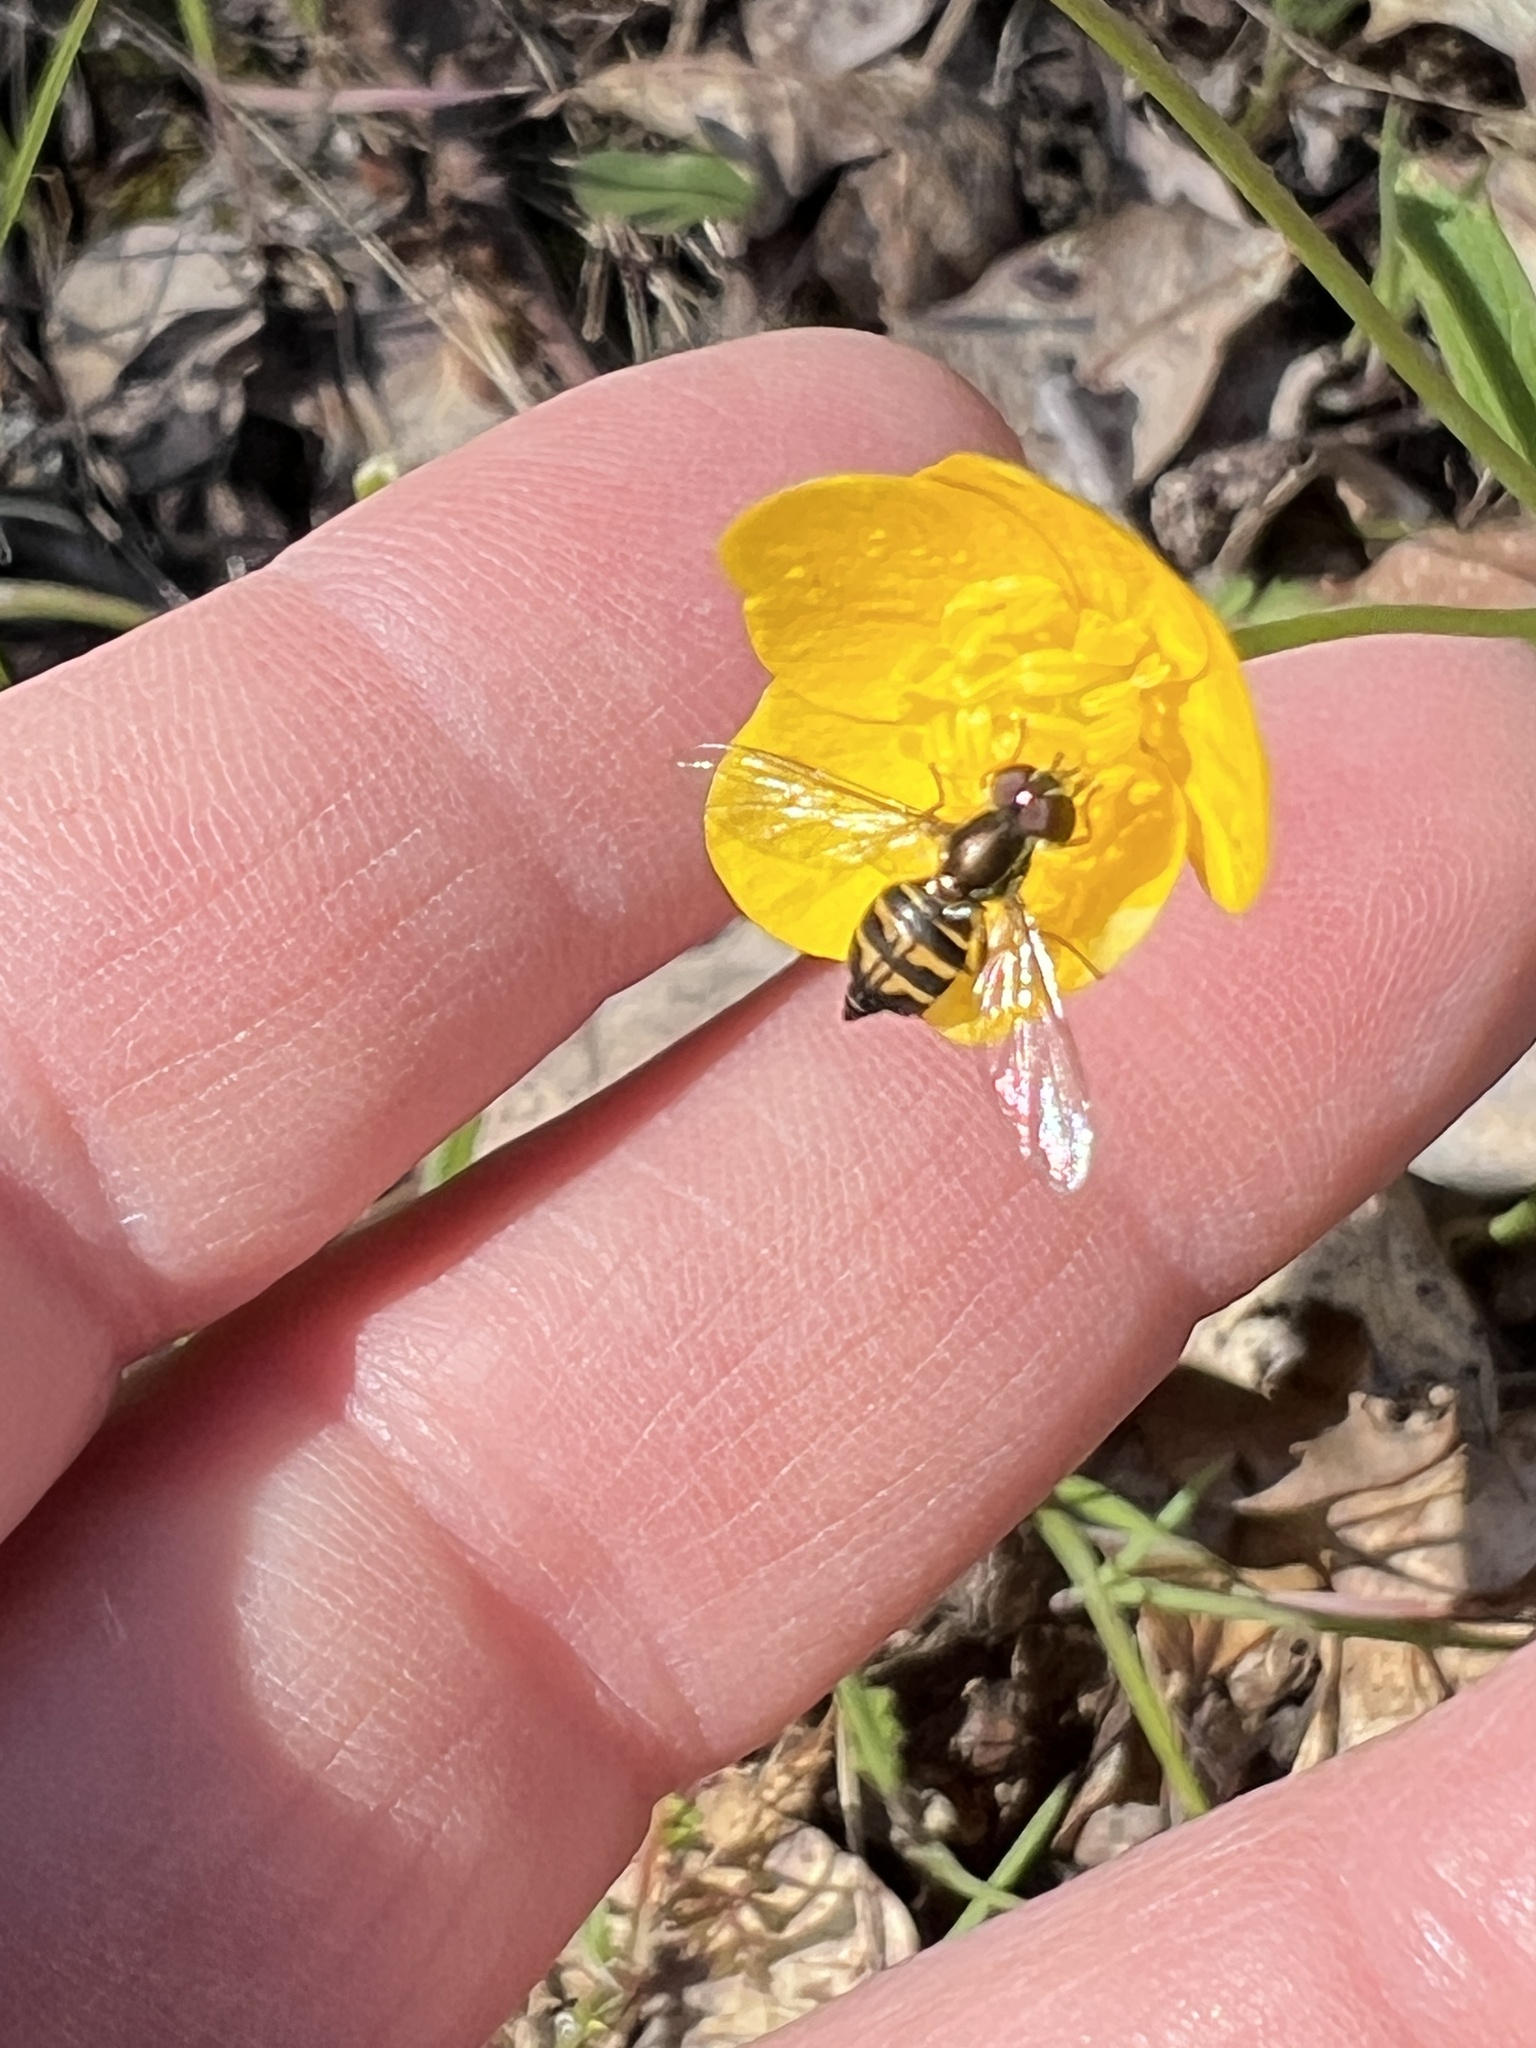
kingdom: Animalia
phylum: Arthropoda
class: Insecta
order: Diptera
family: Syrphidae
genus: Toxomerus
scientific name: Toxomerus occidentalis
